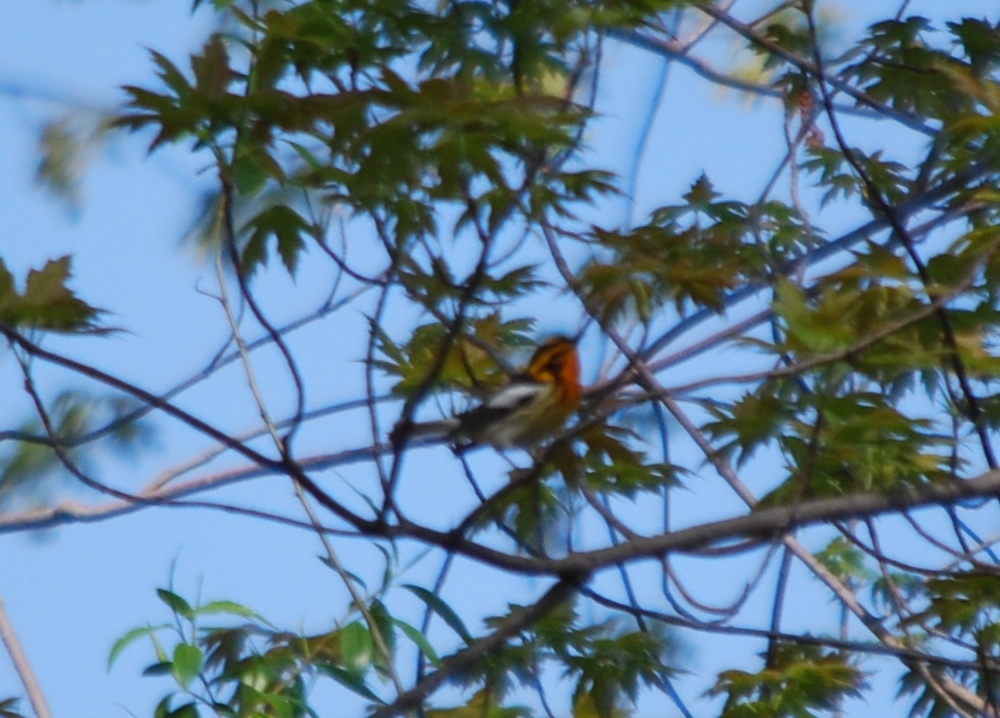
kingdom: Animalia
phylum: Chordata
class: Aves
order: Passeriformes
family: Parulidae
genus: Setophaga
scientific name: Setophaga fusca
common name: Blackburnian warbler
